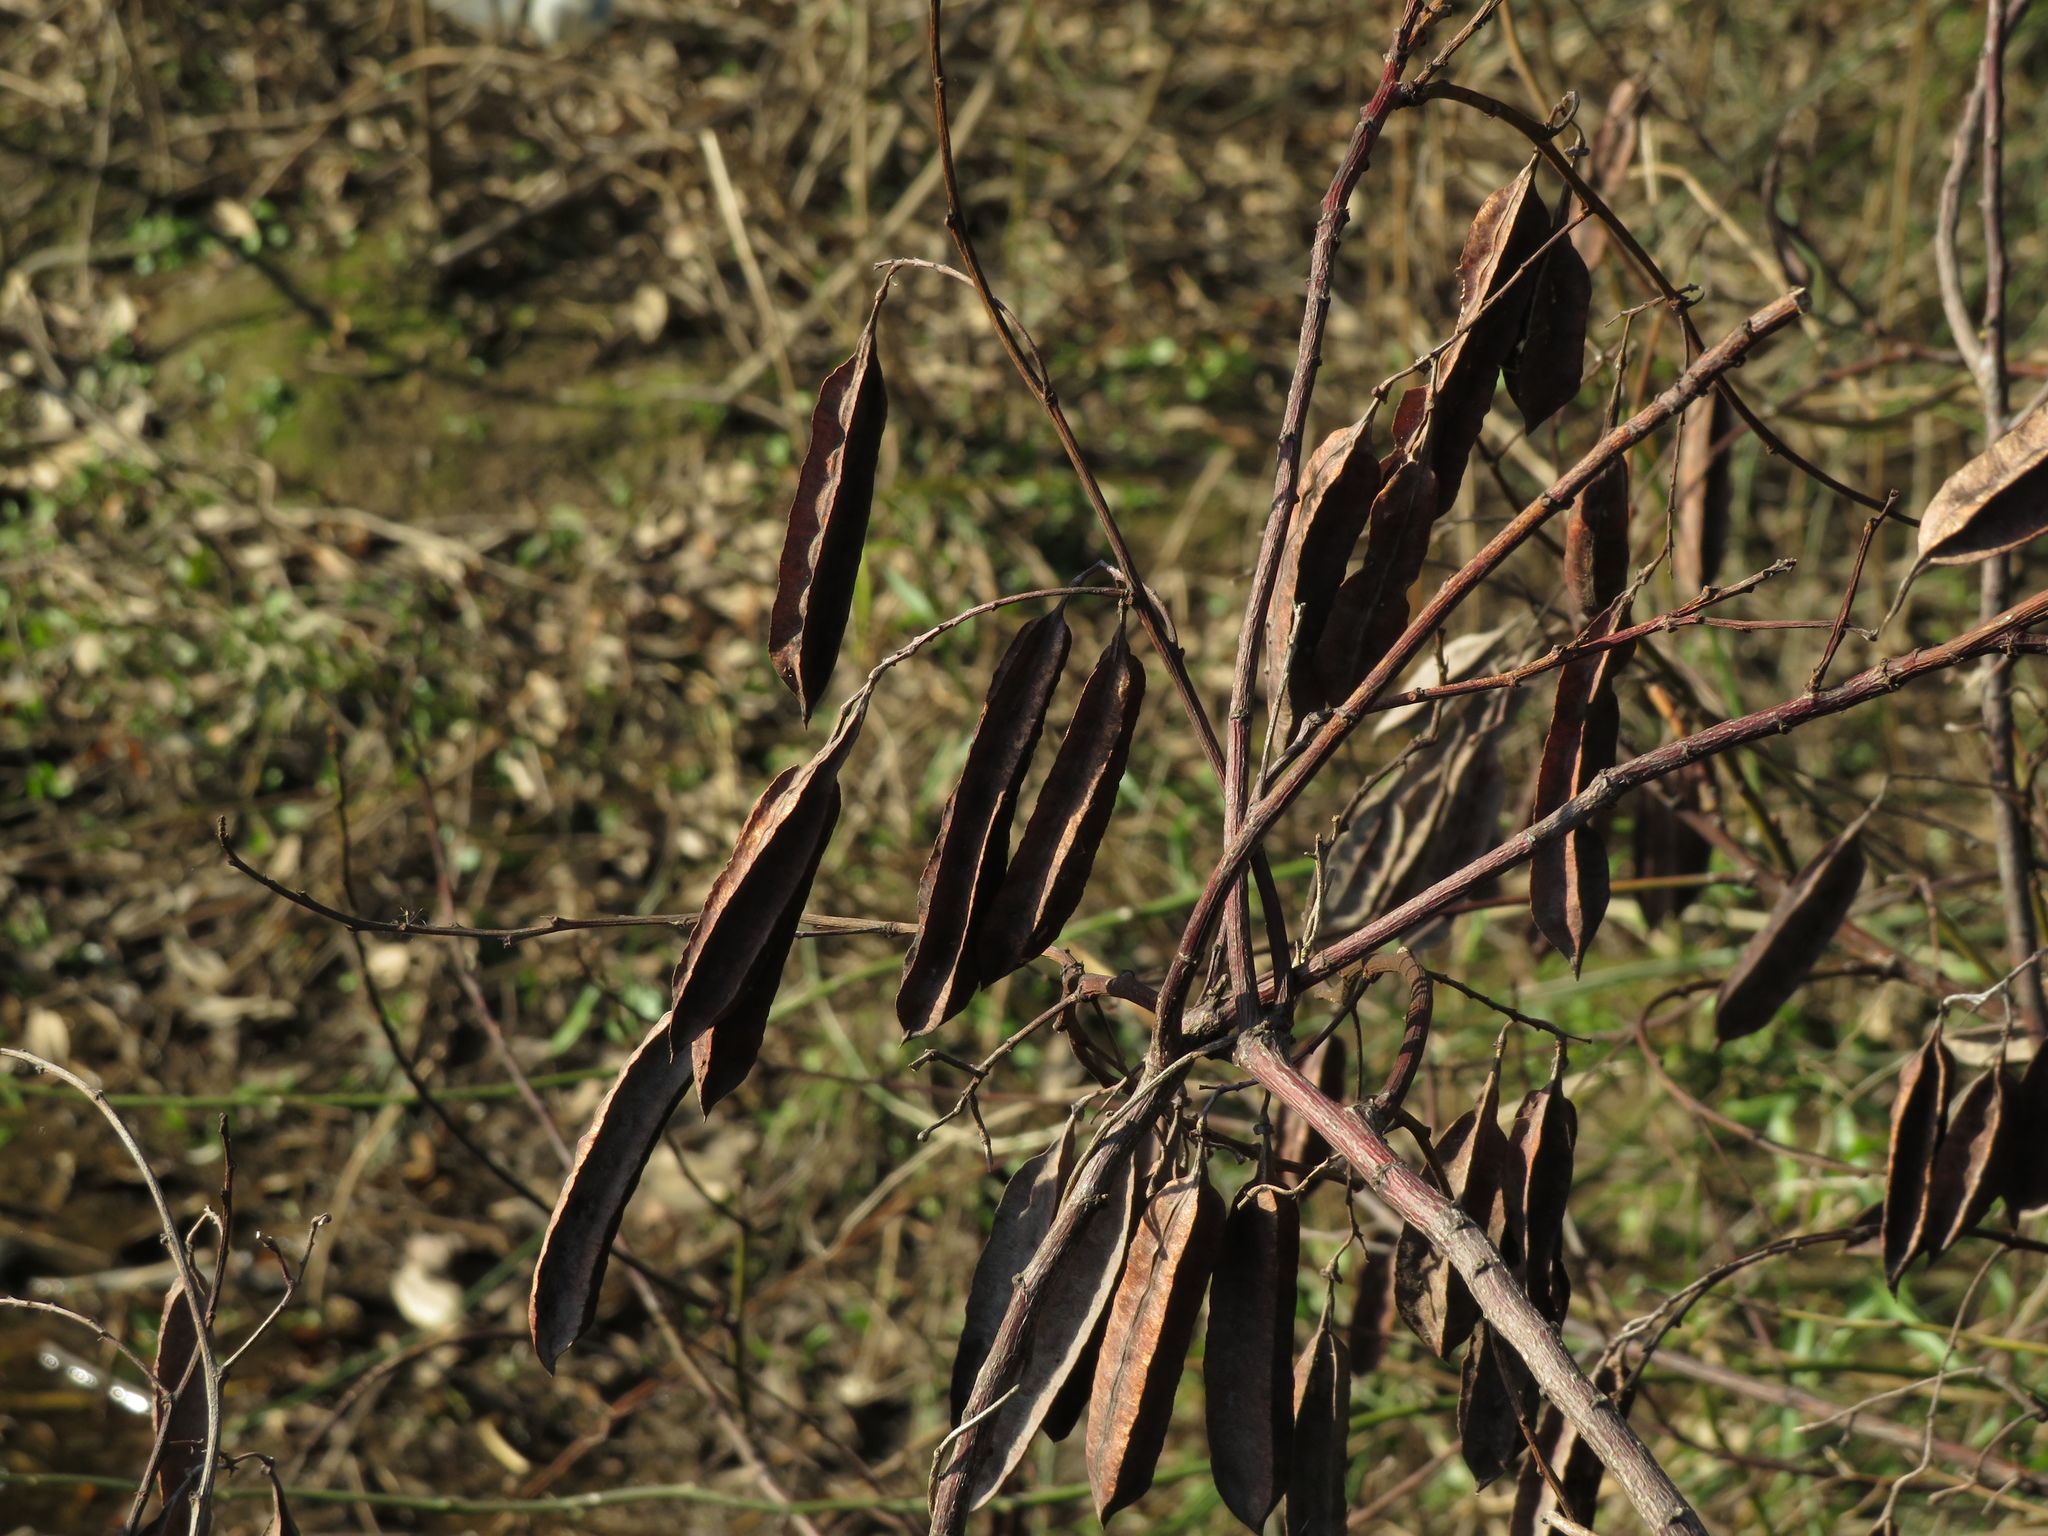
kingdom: Plantae
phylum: Tracheophyta
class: Magnoliopsida
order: Fabales
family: Fabaceae
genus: Sesbania
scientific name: Sesbania punicea
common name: Rattlebox
